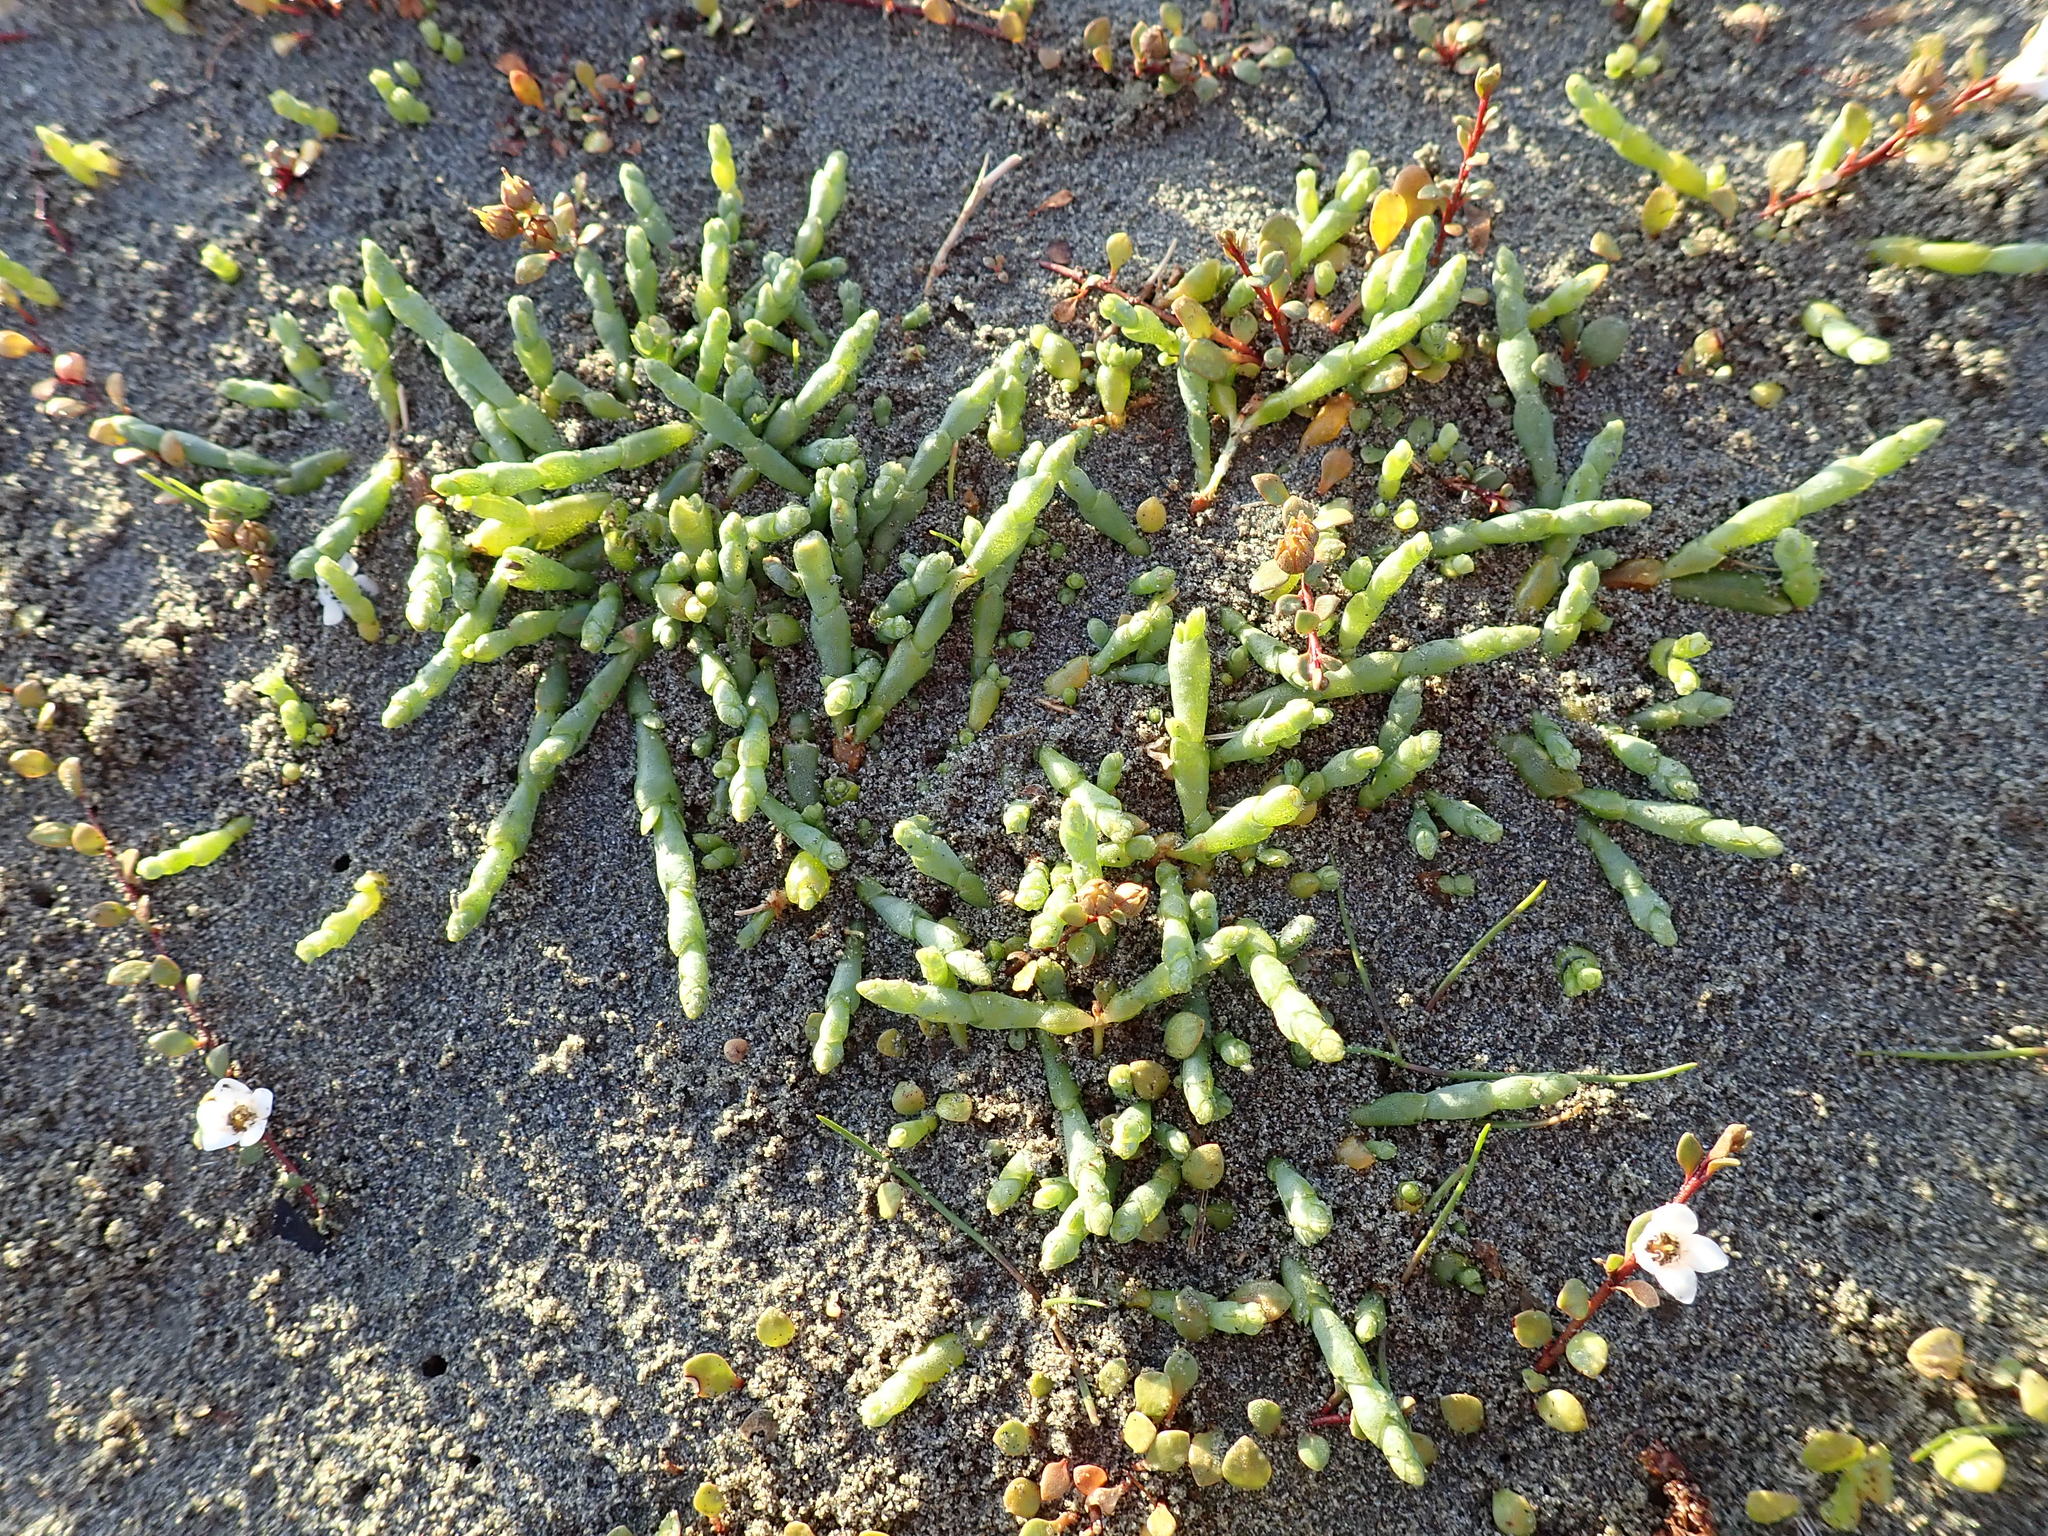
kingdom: Plantae
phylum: Tracheophyta
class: Magnoliopsida
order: Caryophyllales
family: Amaranthaceae
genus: Salicornia
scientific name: Salicornia quinqueflora
